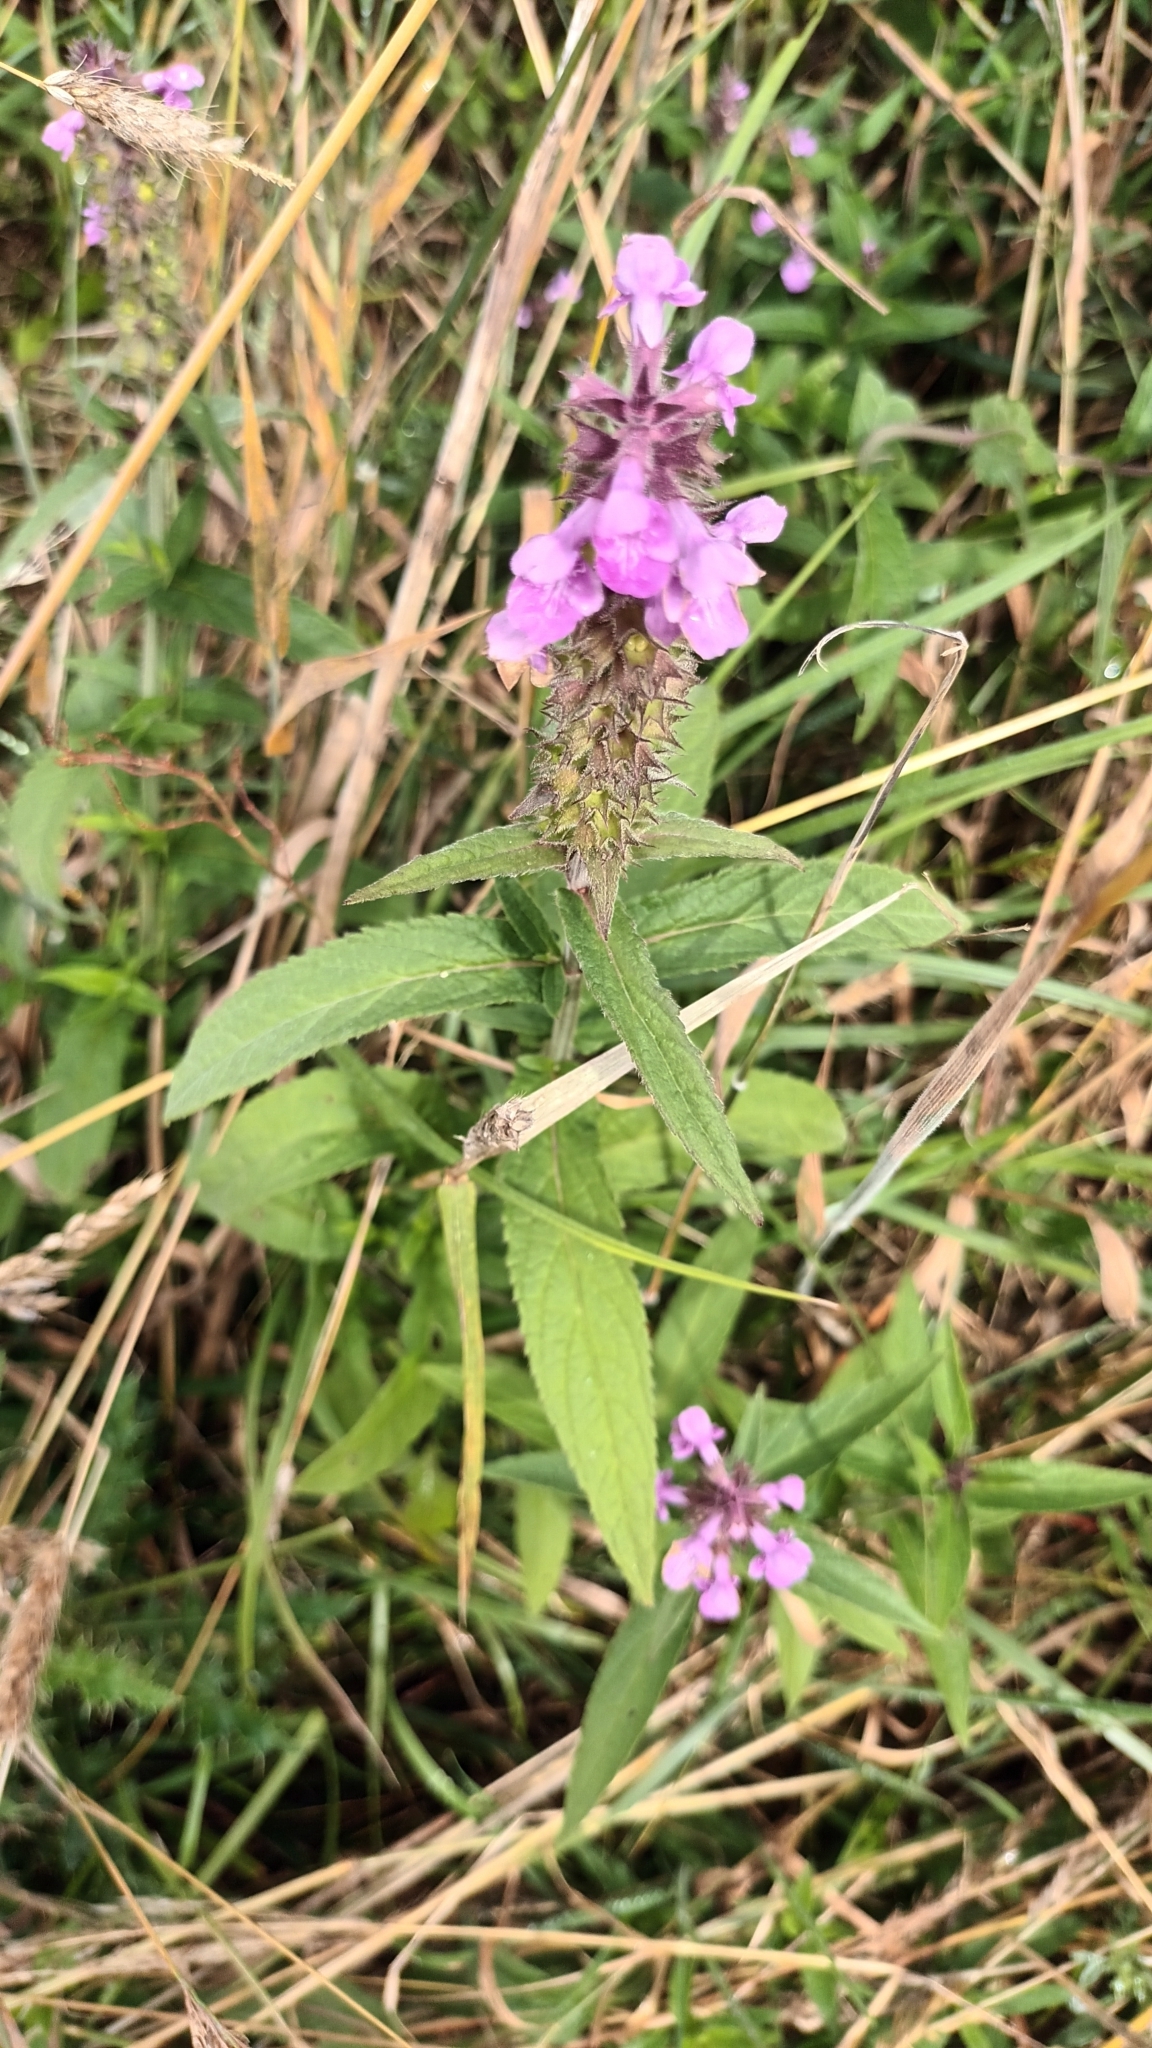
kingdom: Plantae
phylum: Tracheophyta
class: Magnoliopsida
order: Lamiales
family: Lamiaceae
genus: Stachys
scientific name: Stachys palustris
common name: Marsh woundwort
